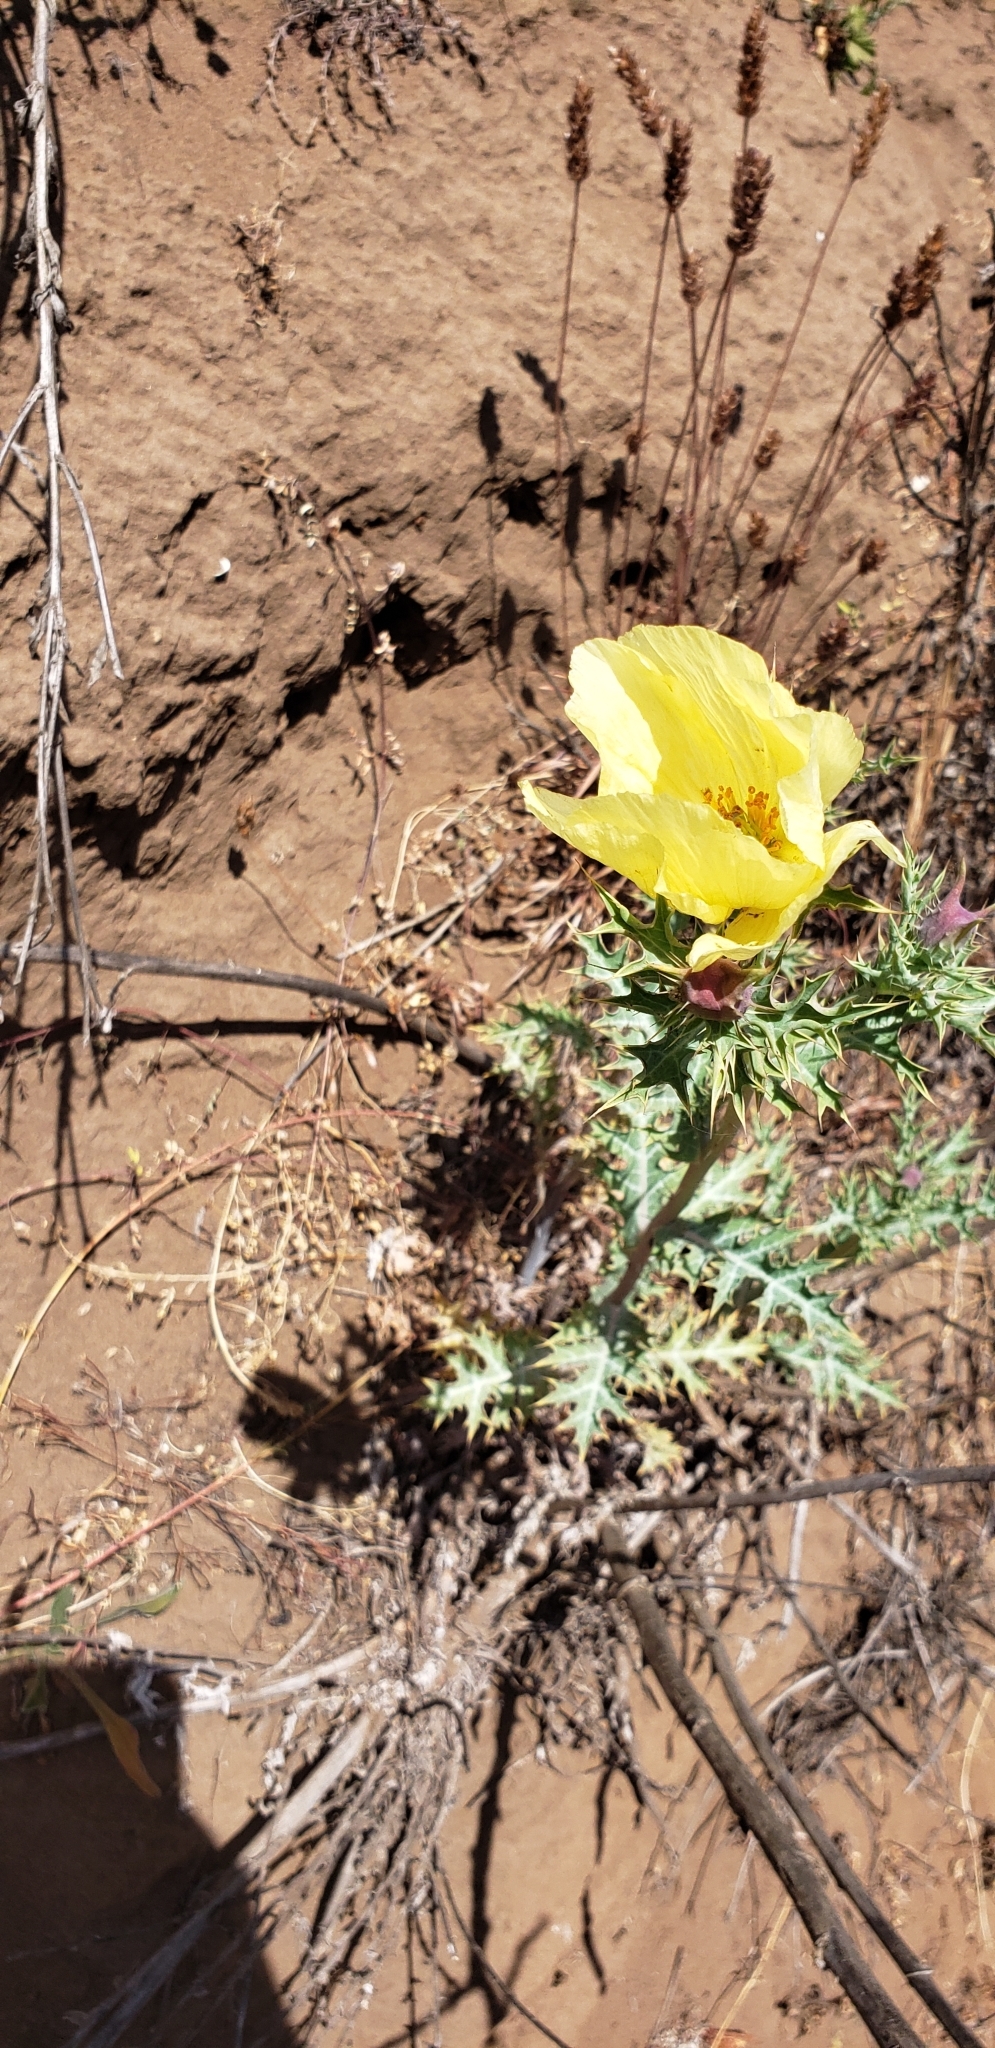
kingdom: Plantae
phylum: Tracheophyta
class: Magnoliopsida
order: Ranunculales
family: Papaveraceae
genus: Argemone
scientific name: Argemone subfusiformis
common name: American-poppy
